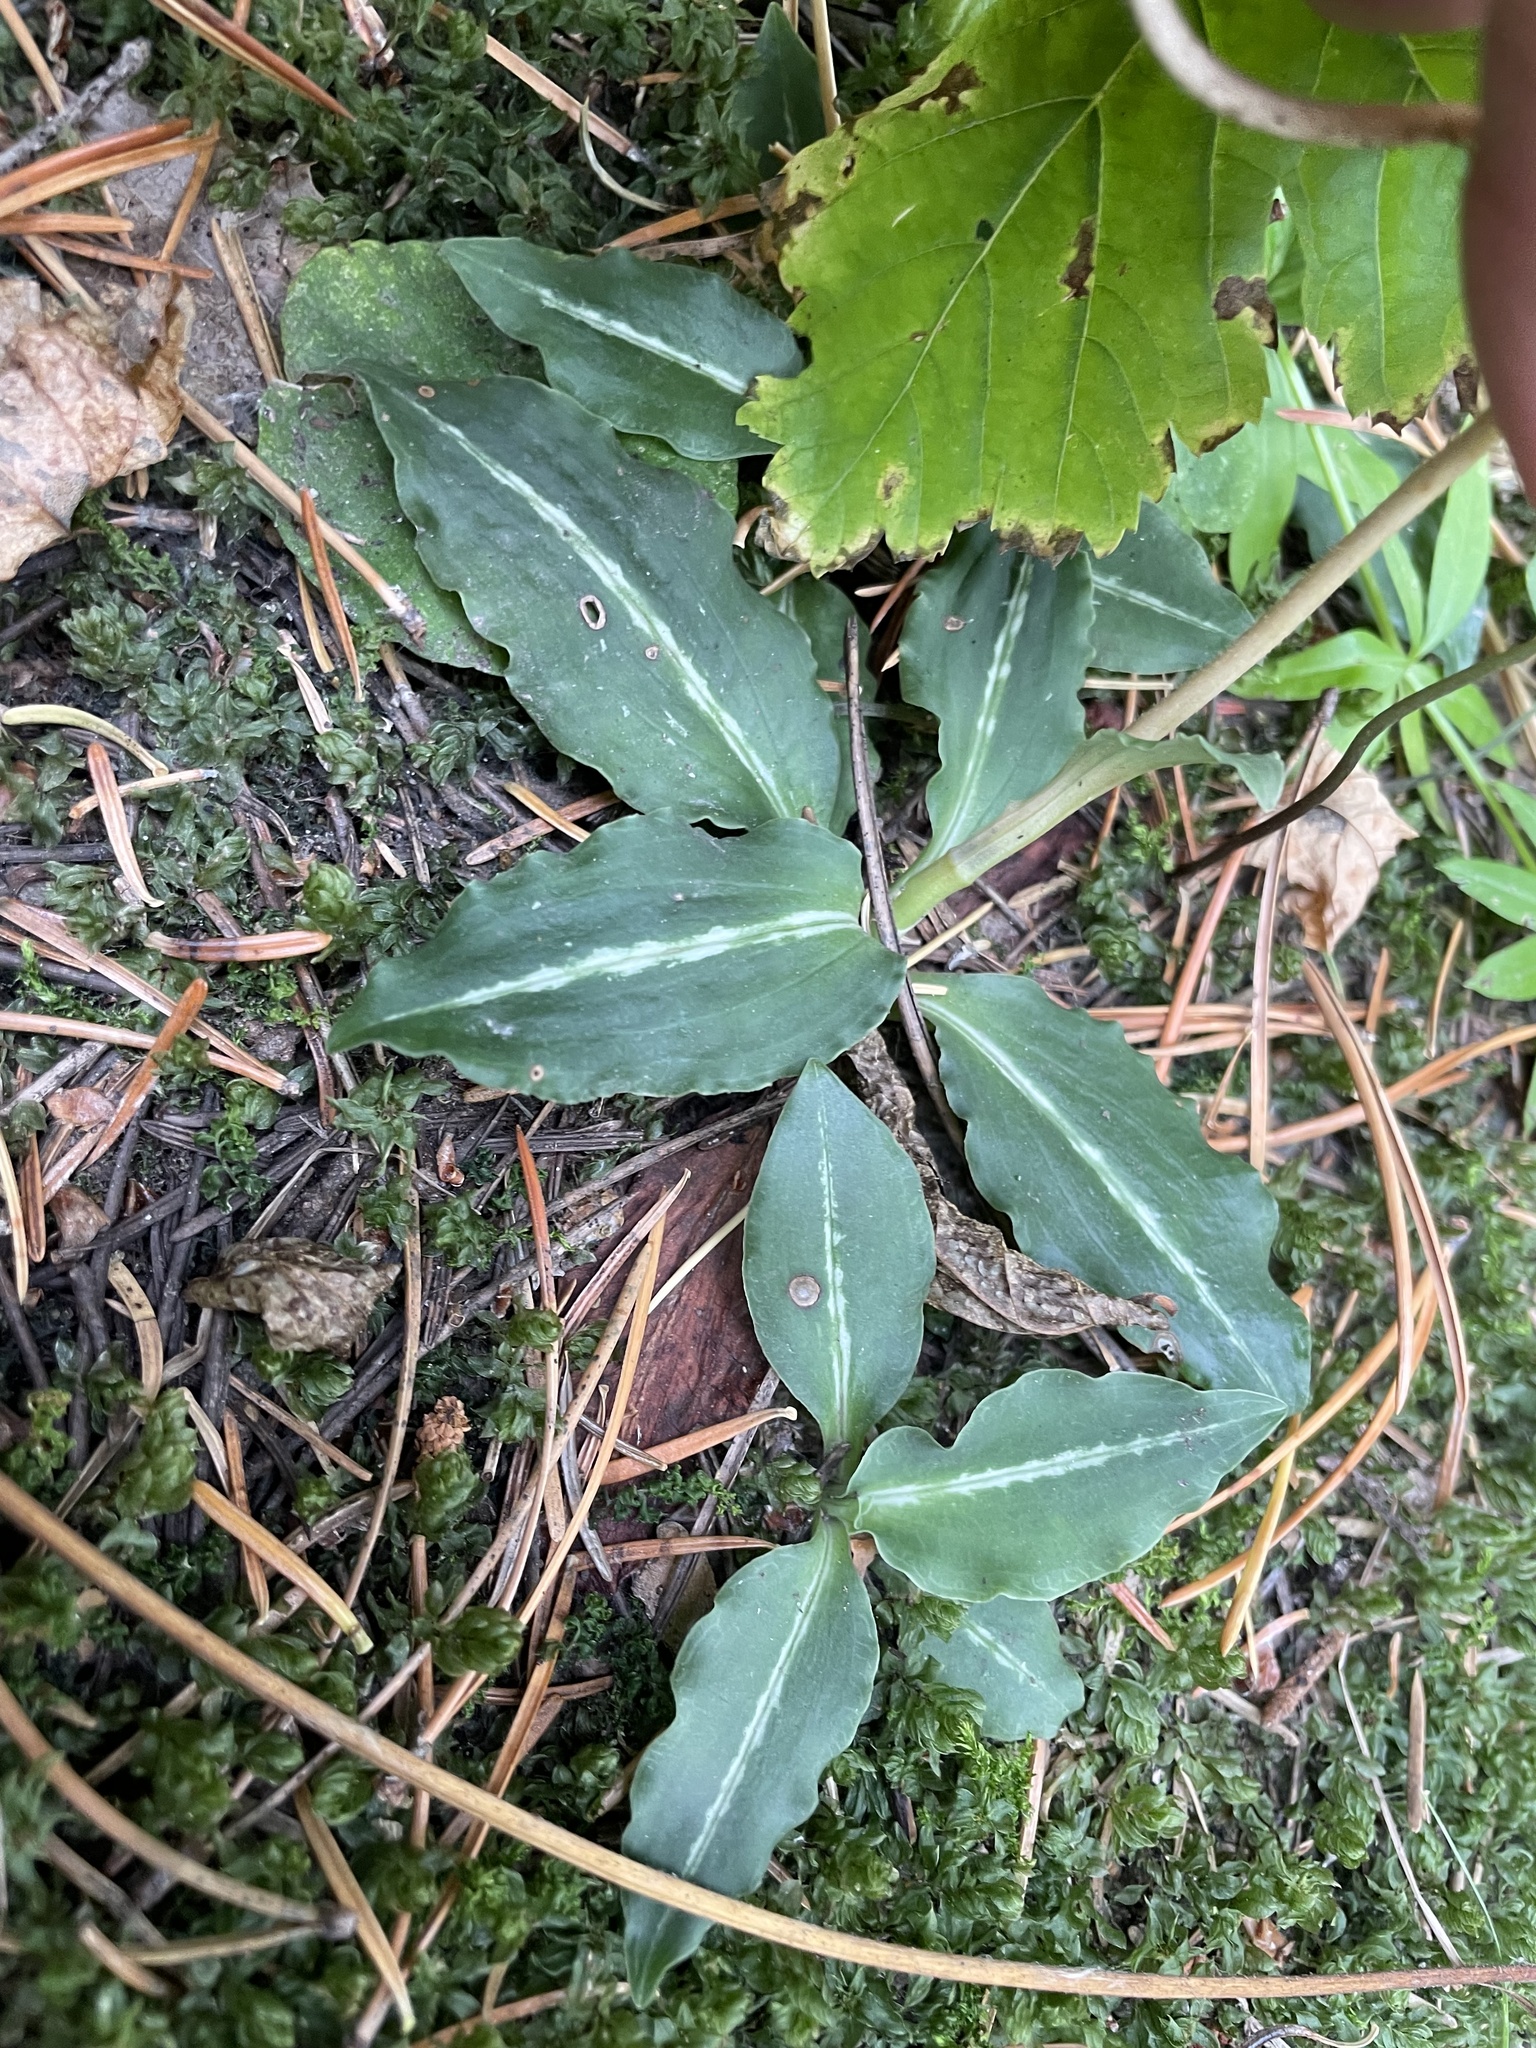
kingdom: Plantae
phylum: Tracheophyta
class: Liliopsida
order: Asparagales
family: Orchidaceae
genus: Goodyera
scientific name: Goodyera oblongifolia
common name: Giant rattlesnake-plantain
